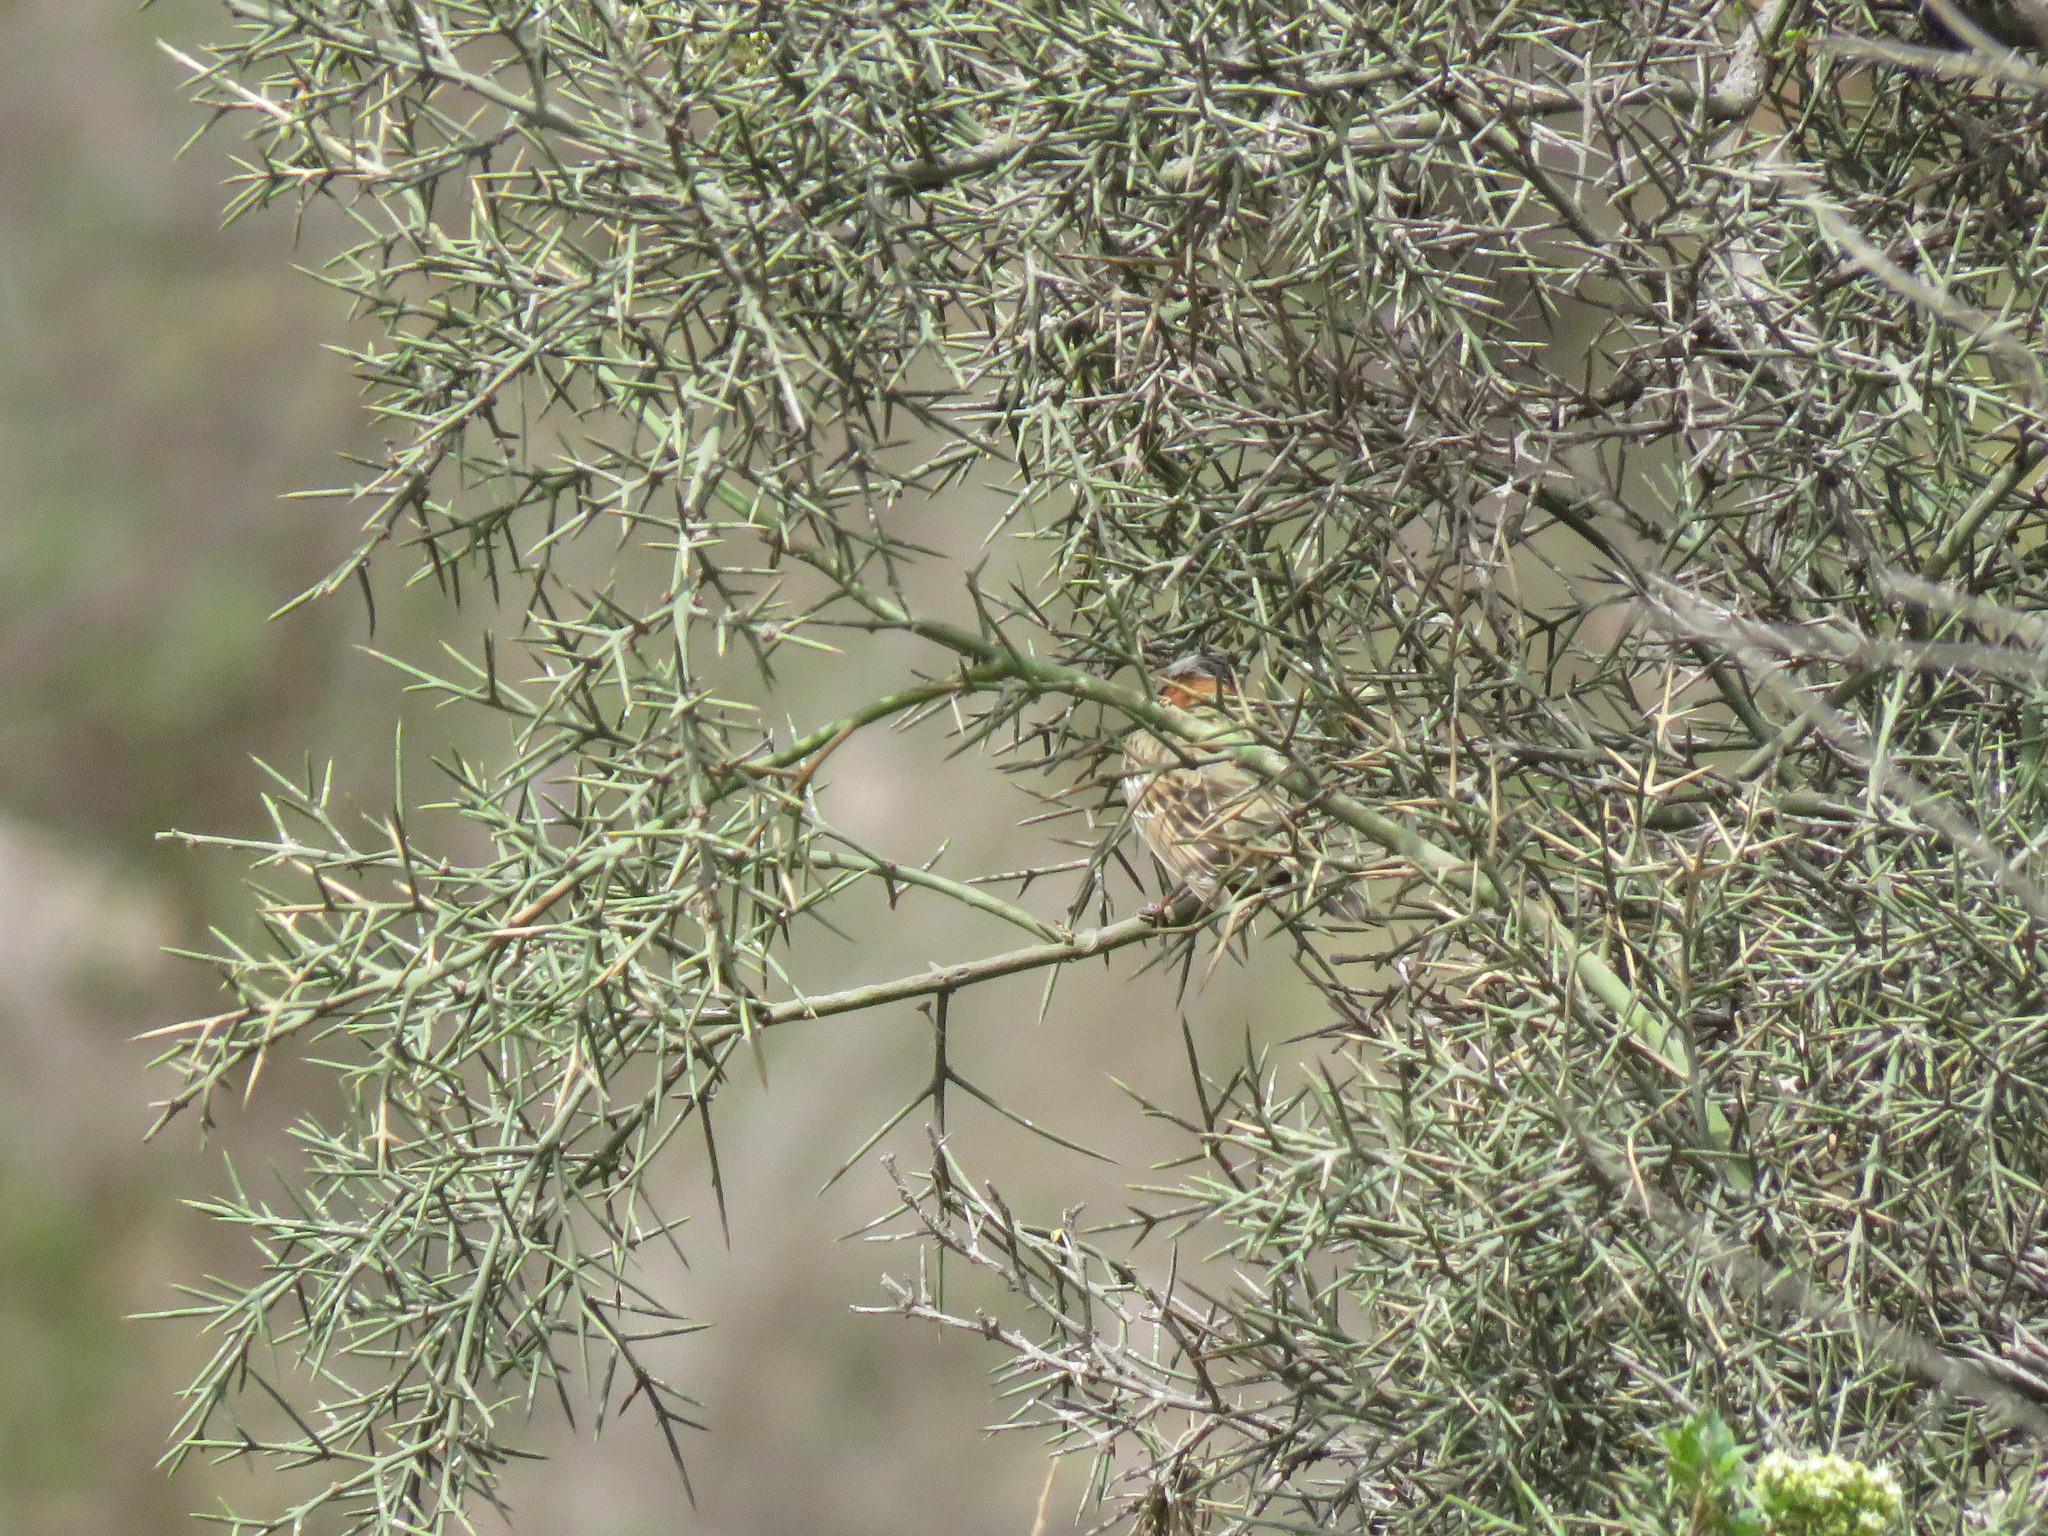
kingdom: Animalia
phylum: Chordata
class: Aves
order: Passeriformes
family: Passerellidae
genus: Zonotrichia
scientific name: Zonotrichia capensis
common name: Rufous-collared sparrow
